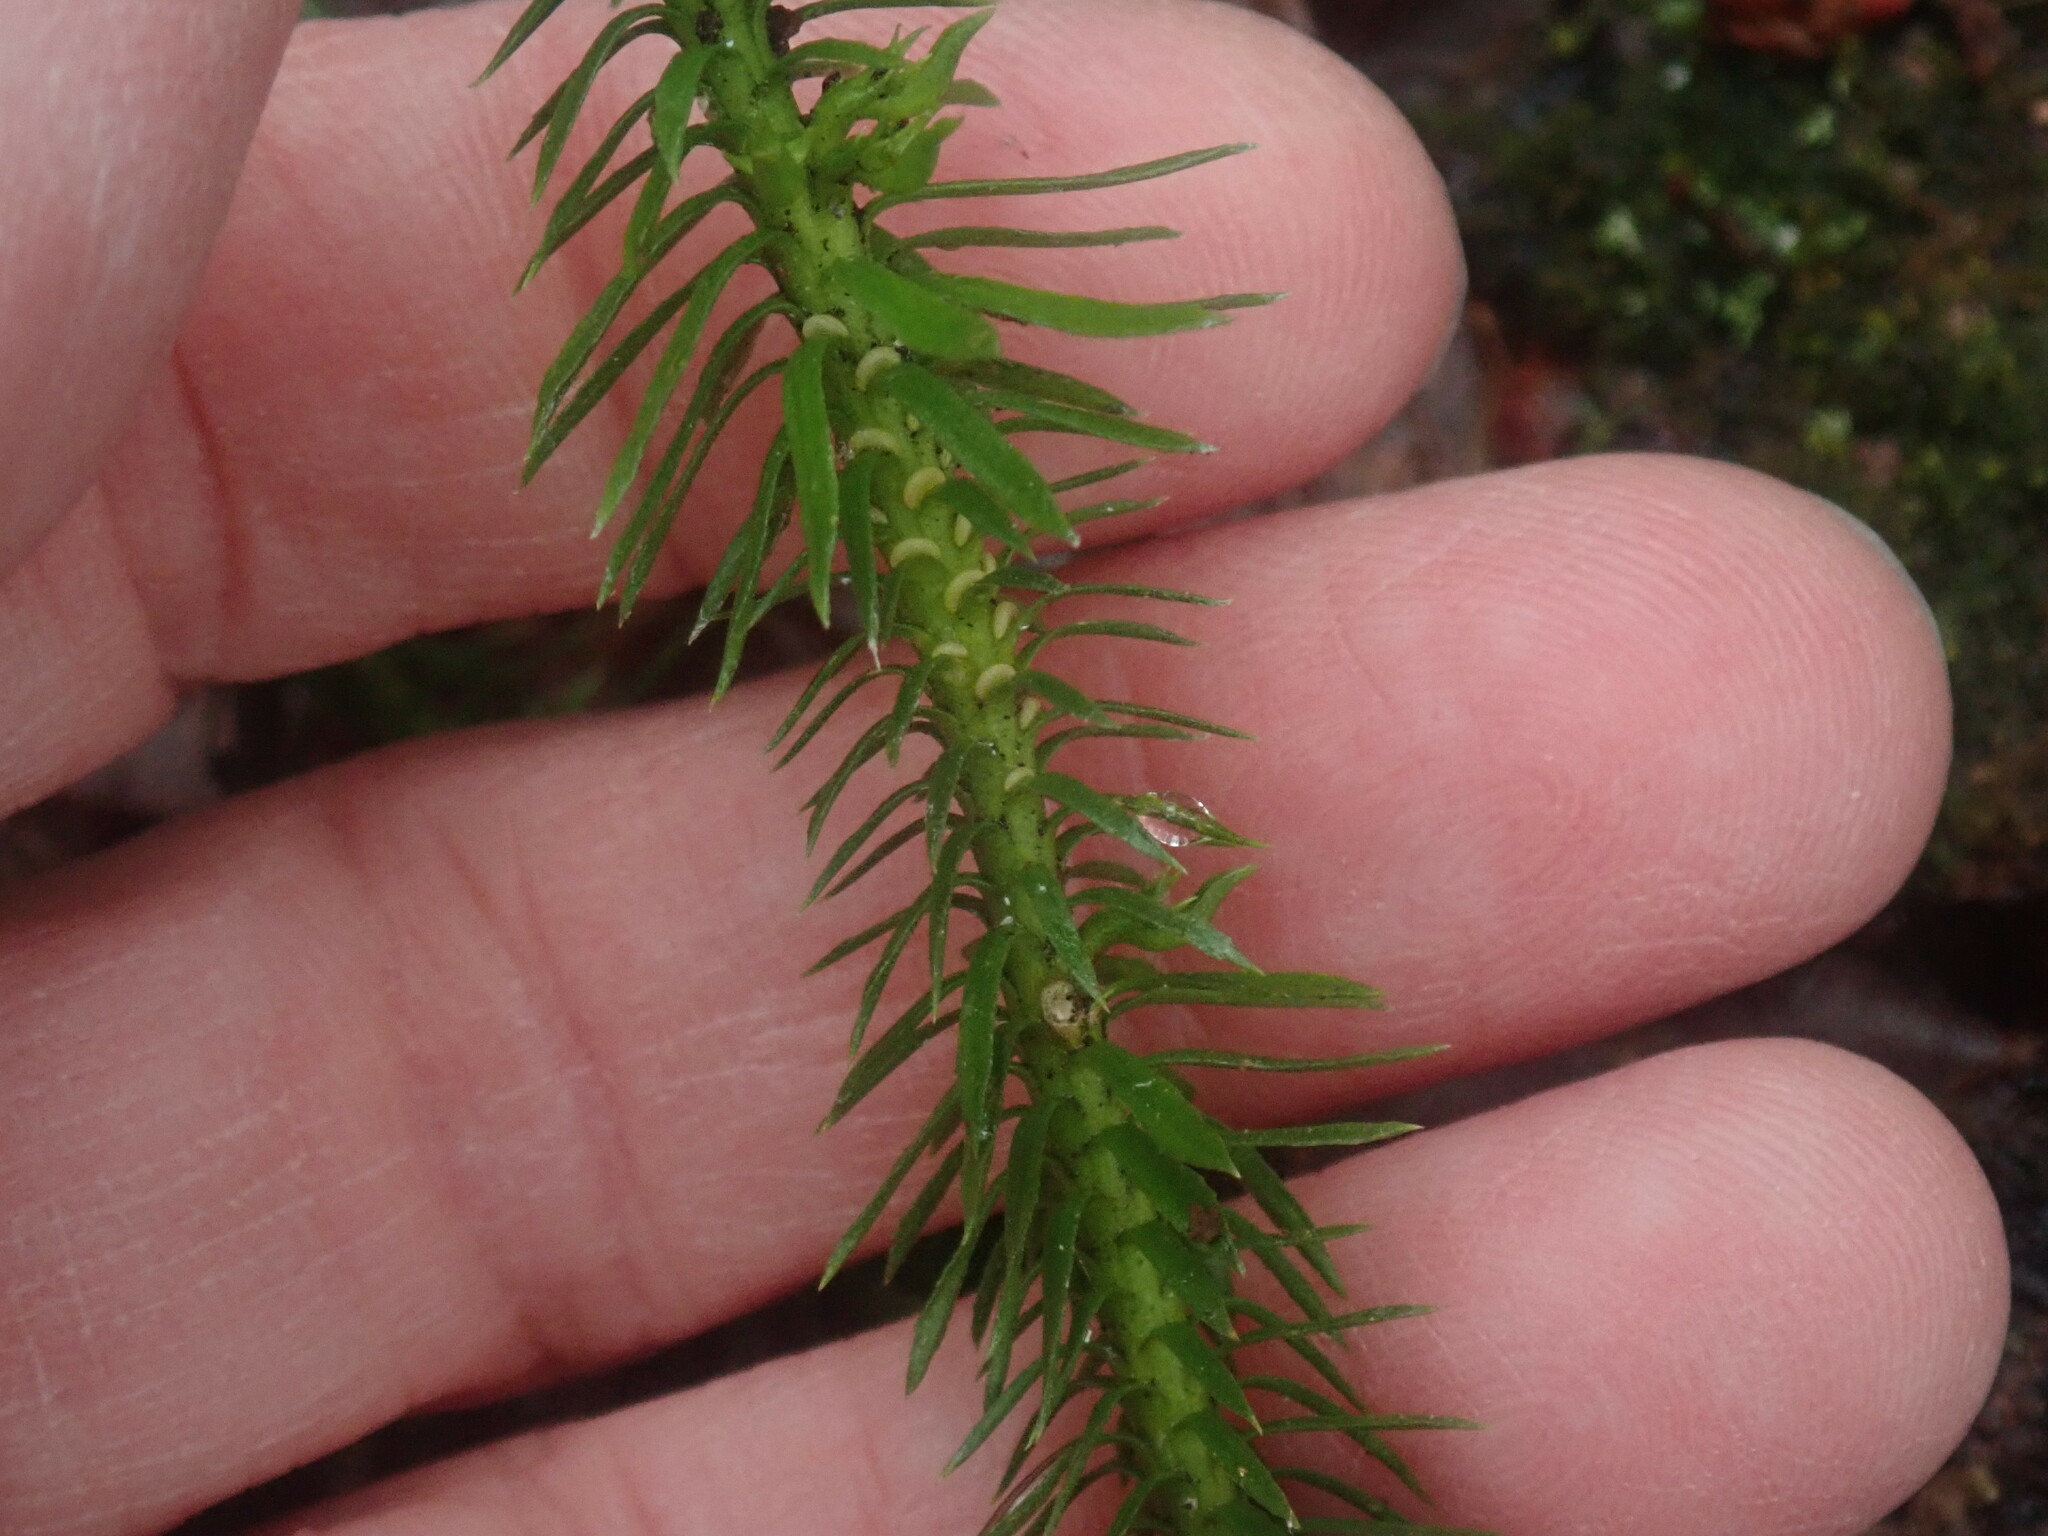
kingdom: Plantae
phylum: Tracheophyta
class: Lycopodiopsida
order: Lycopodiales
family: Lycopodiaceae
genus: Huperzia
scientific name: Huperzia lucidula
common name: Shining clubmoss
